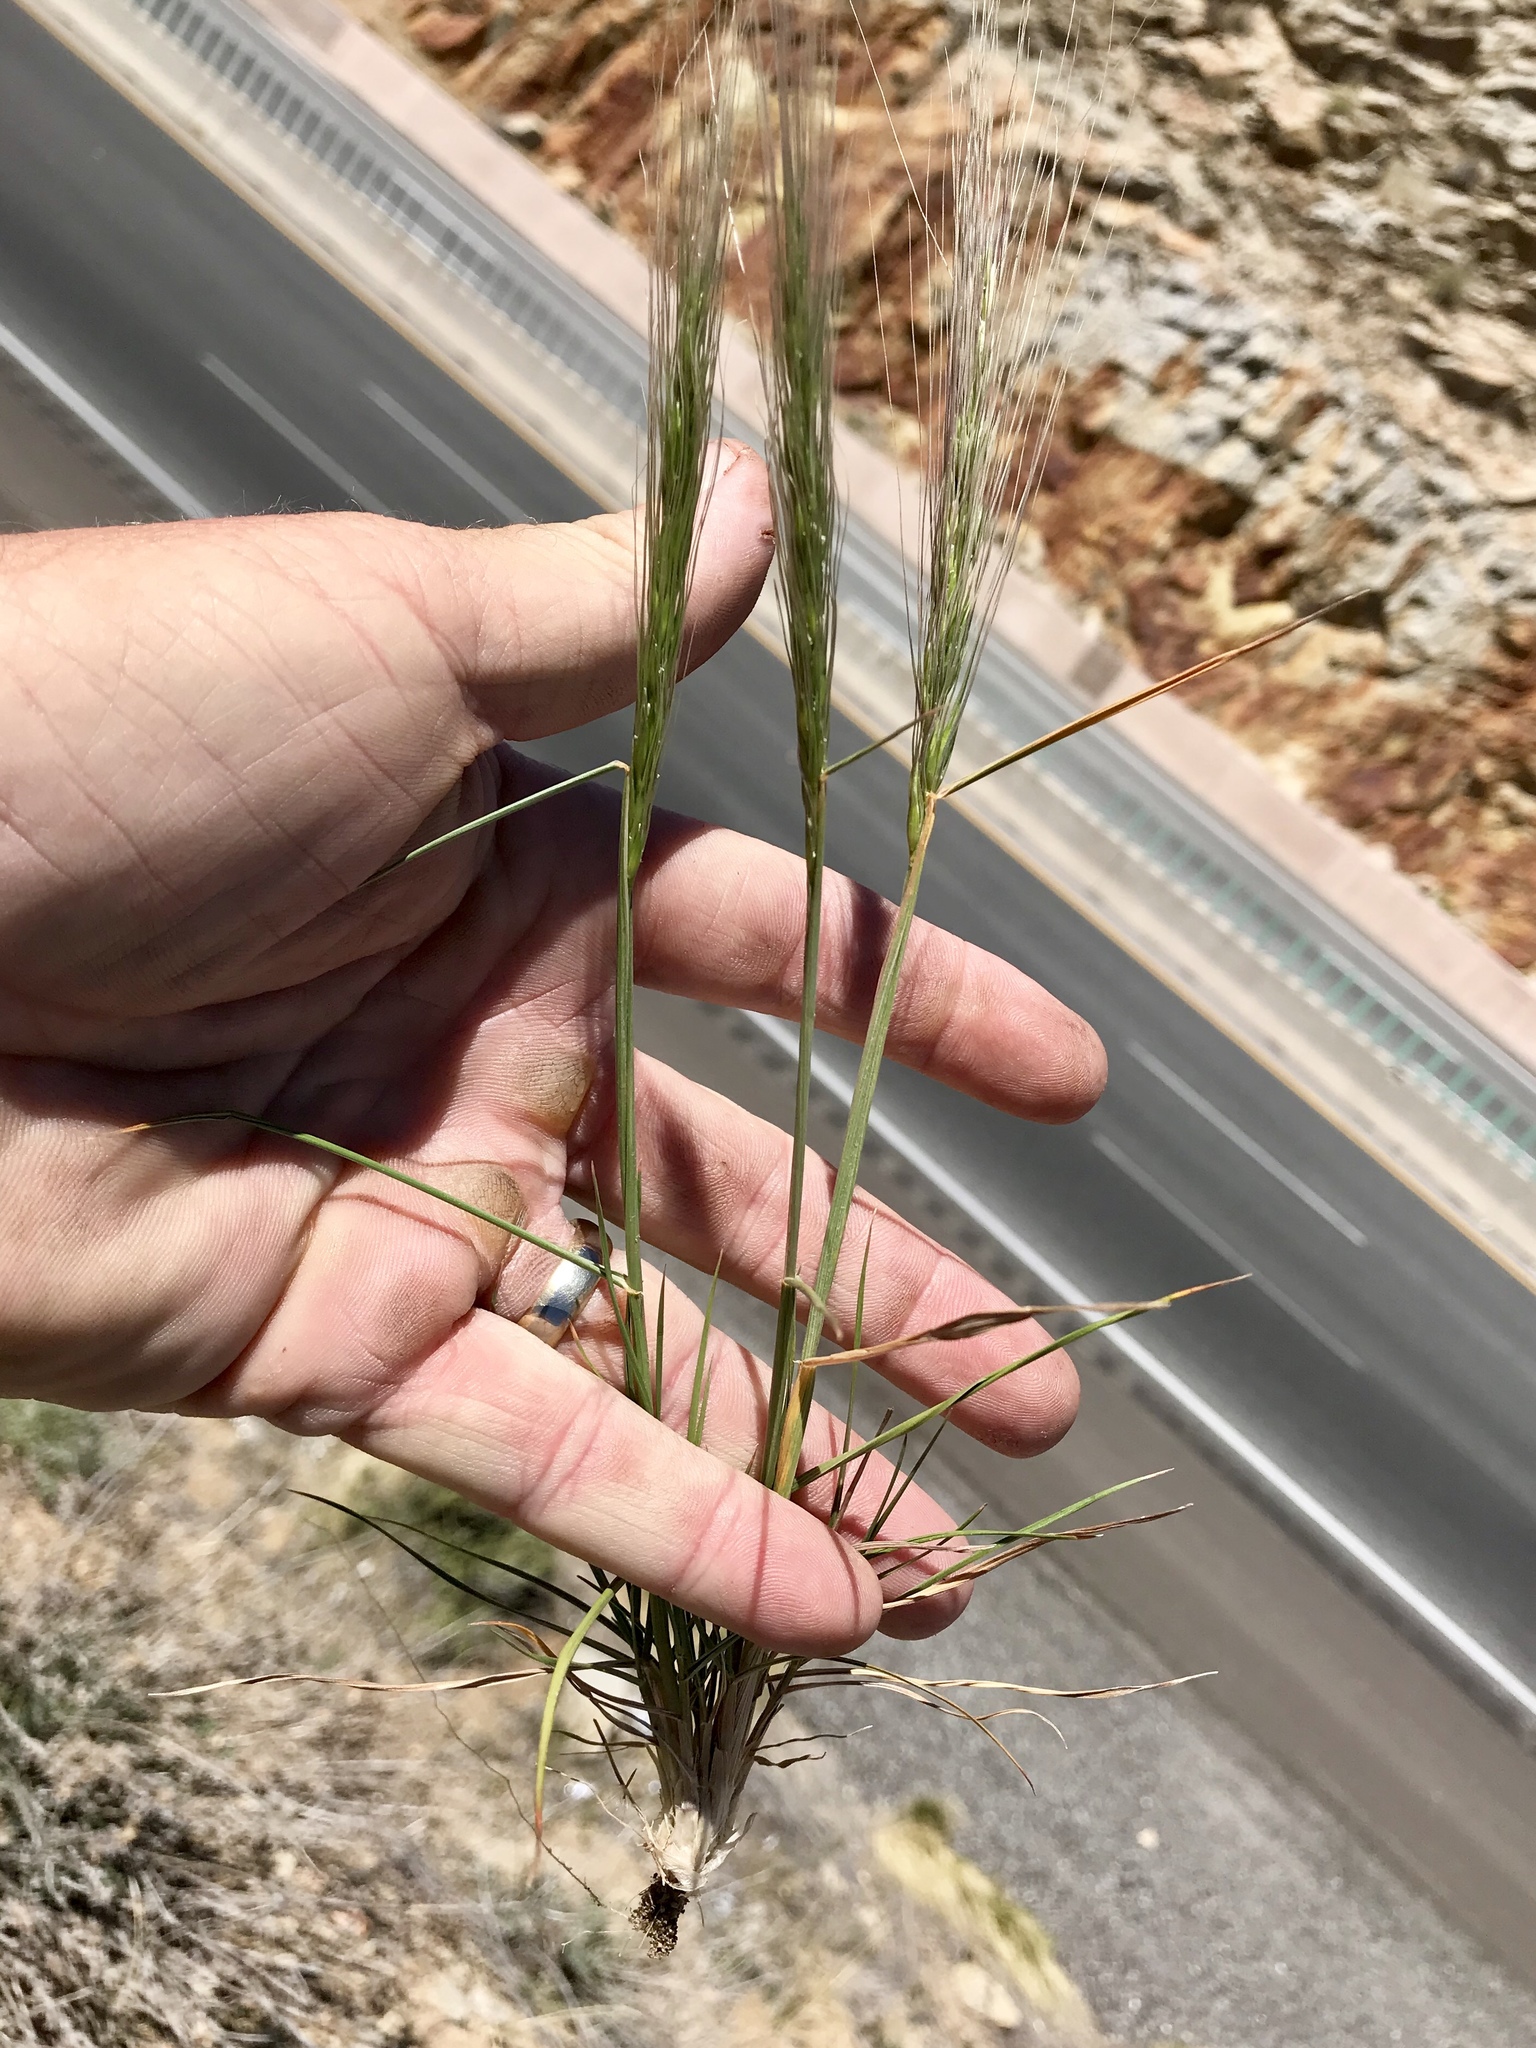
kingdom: Plantae
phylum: Tracheophyta
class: Liliopsida
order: Poales
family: Poaceae
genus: Elymus
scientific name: Elymus longifolius
